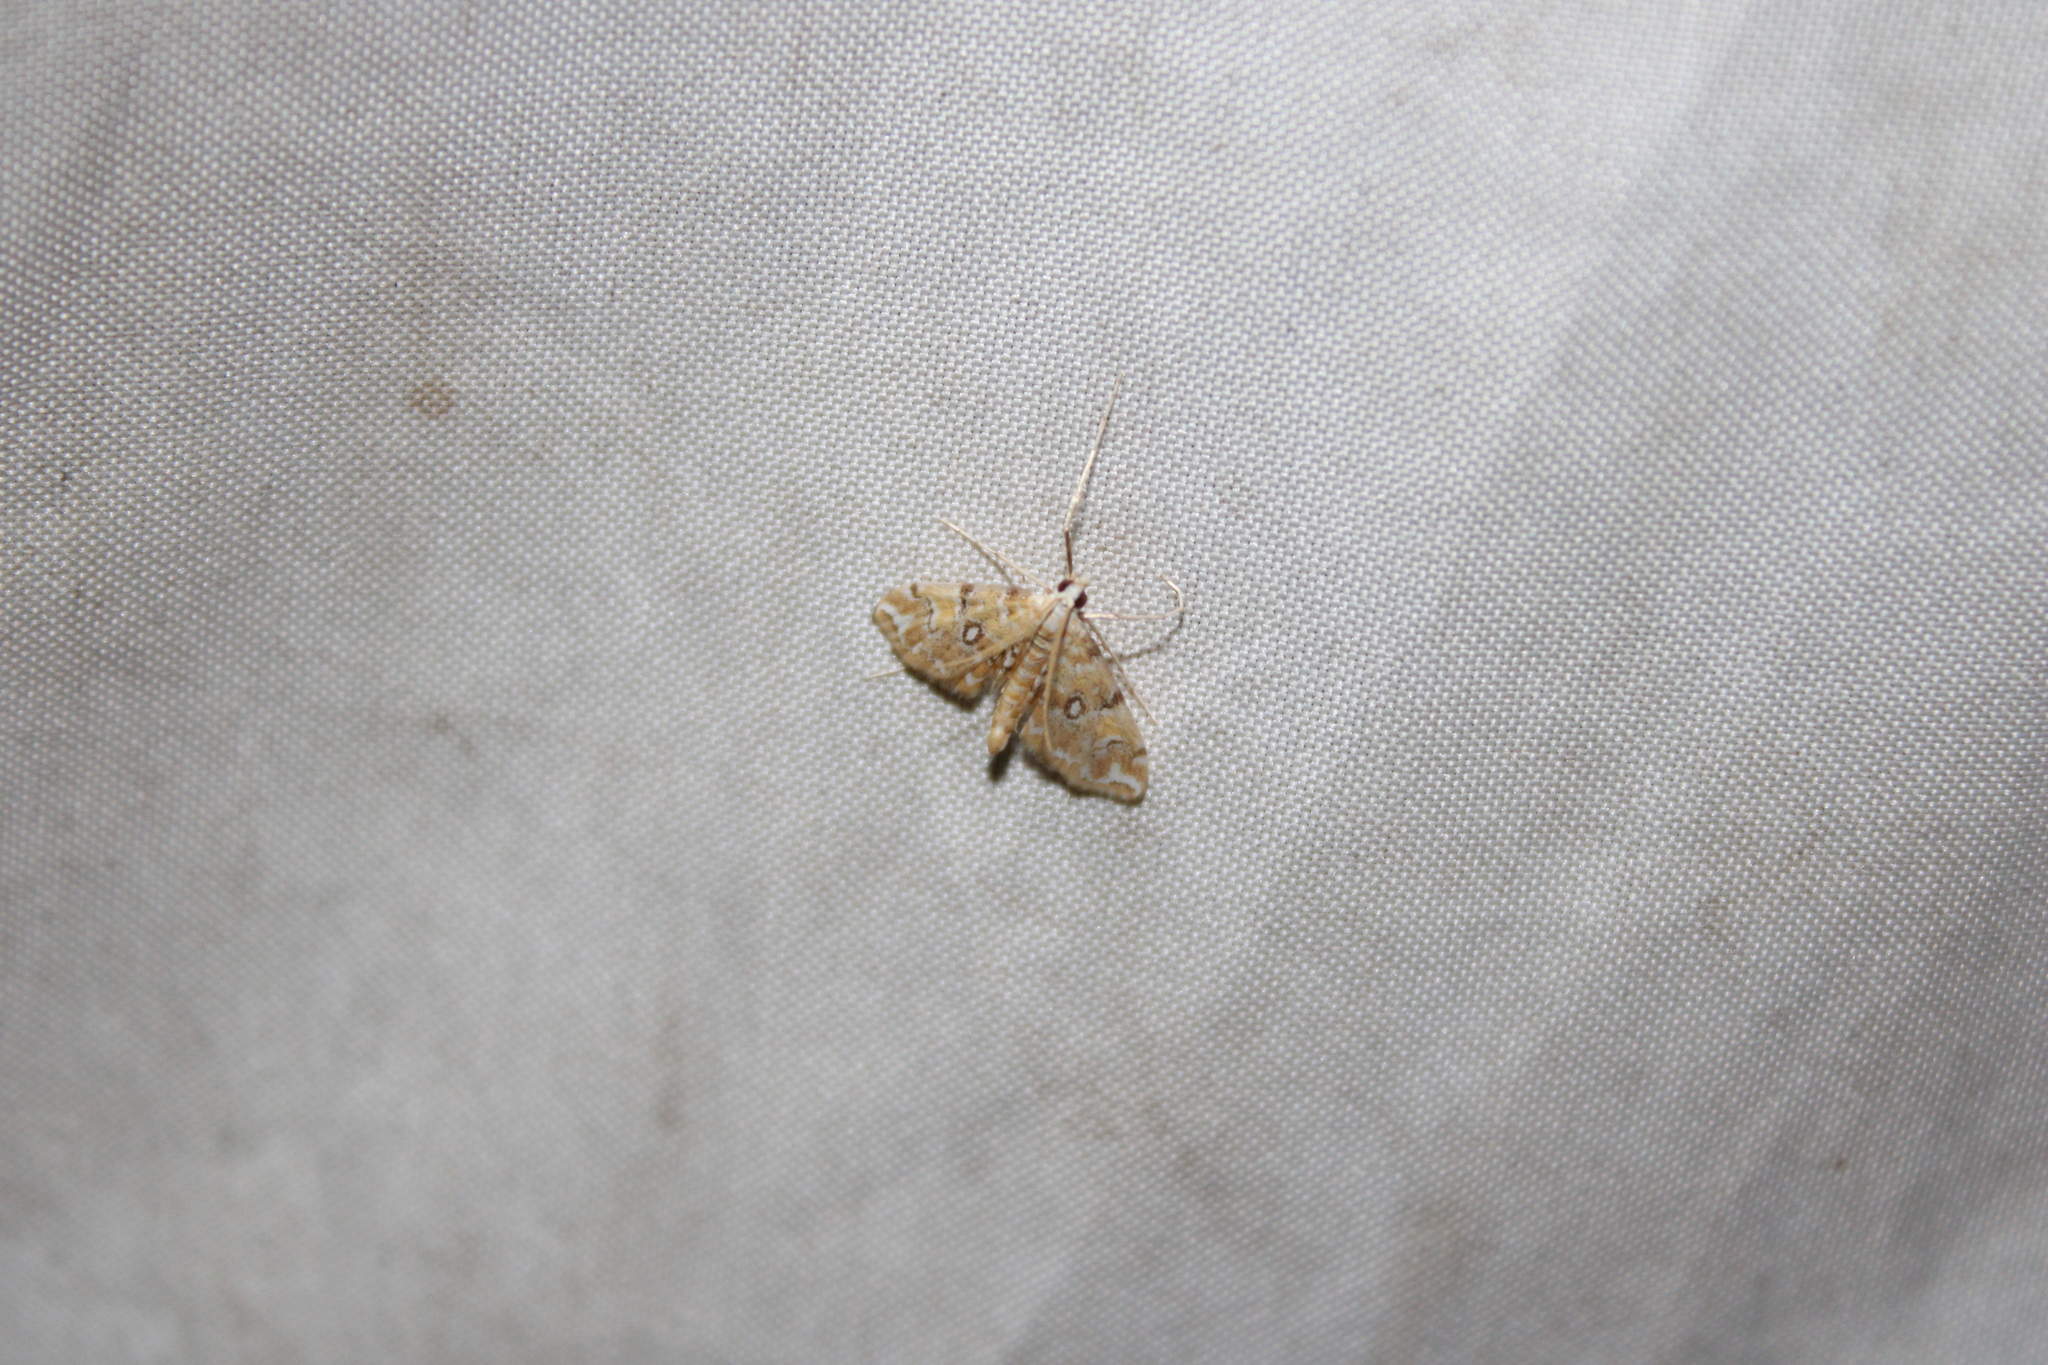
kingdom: Animalia
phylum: Arthropoda
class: Insecta
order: Lepidoptera
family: Crambidae
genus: Elophila
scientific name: Elophila icciusalis
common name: Pondside pyralid moth
